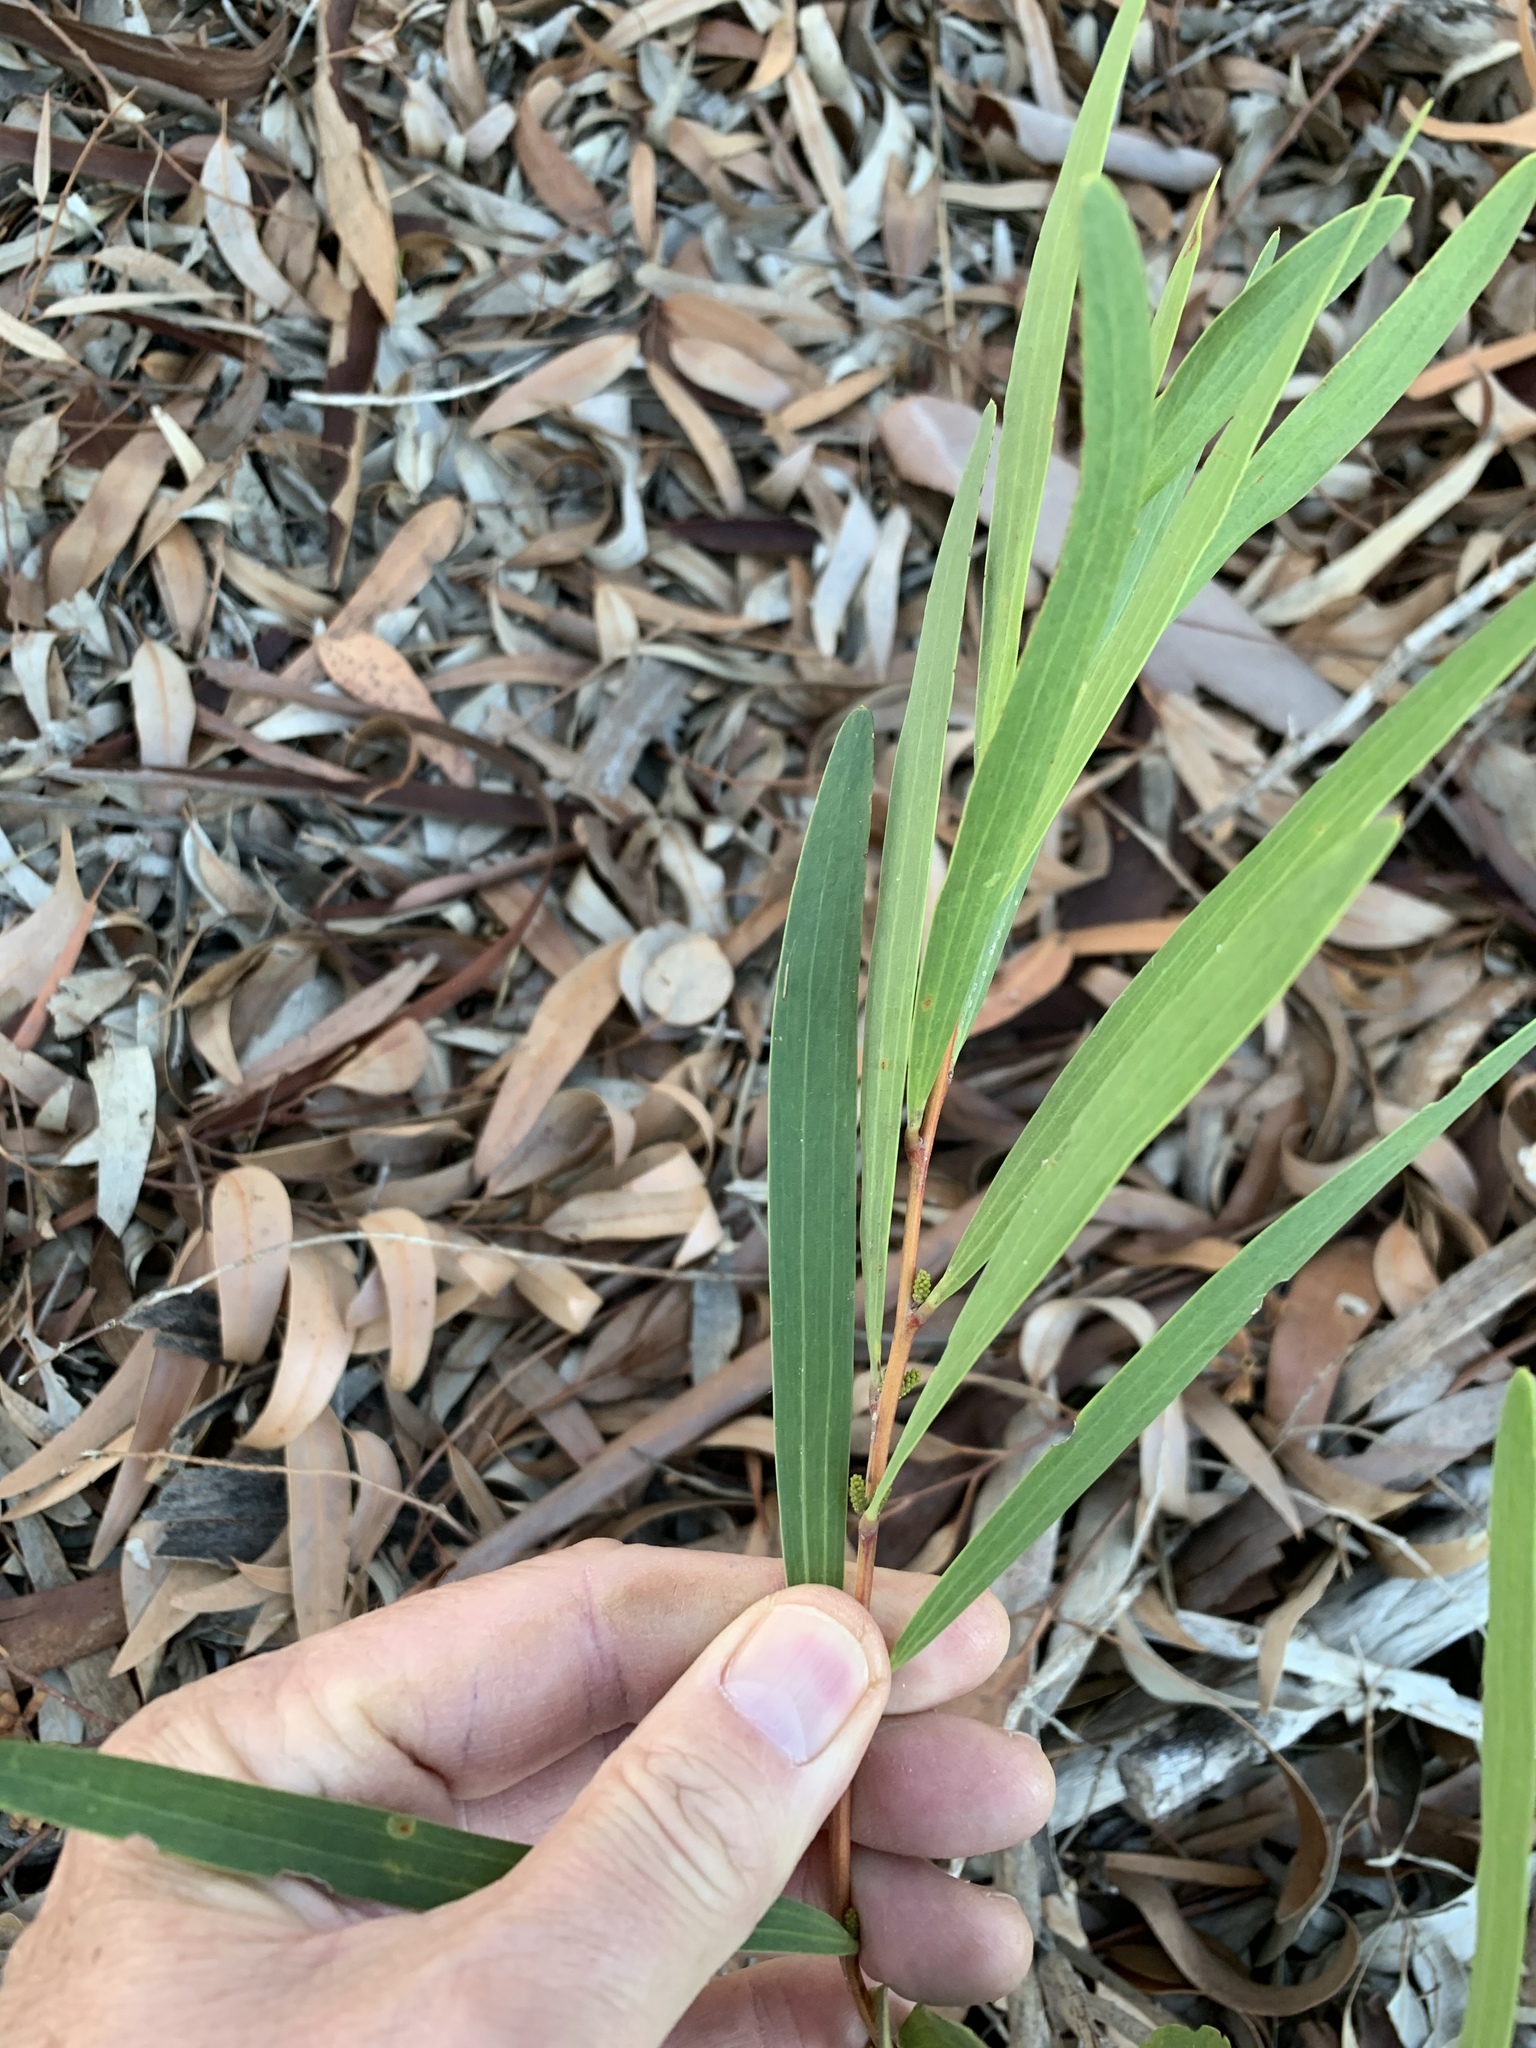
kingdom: Plantae
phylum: Tracheophyta
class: Magnoliopsida
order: Fabales
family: Fabaceae
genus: Acacia
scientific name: Acacia longifolia
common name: Sydney golden wattle
